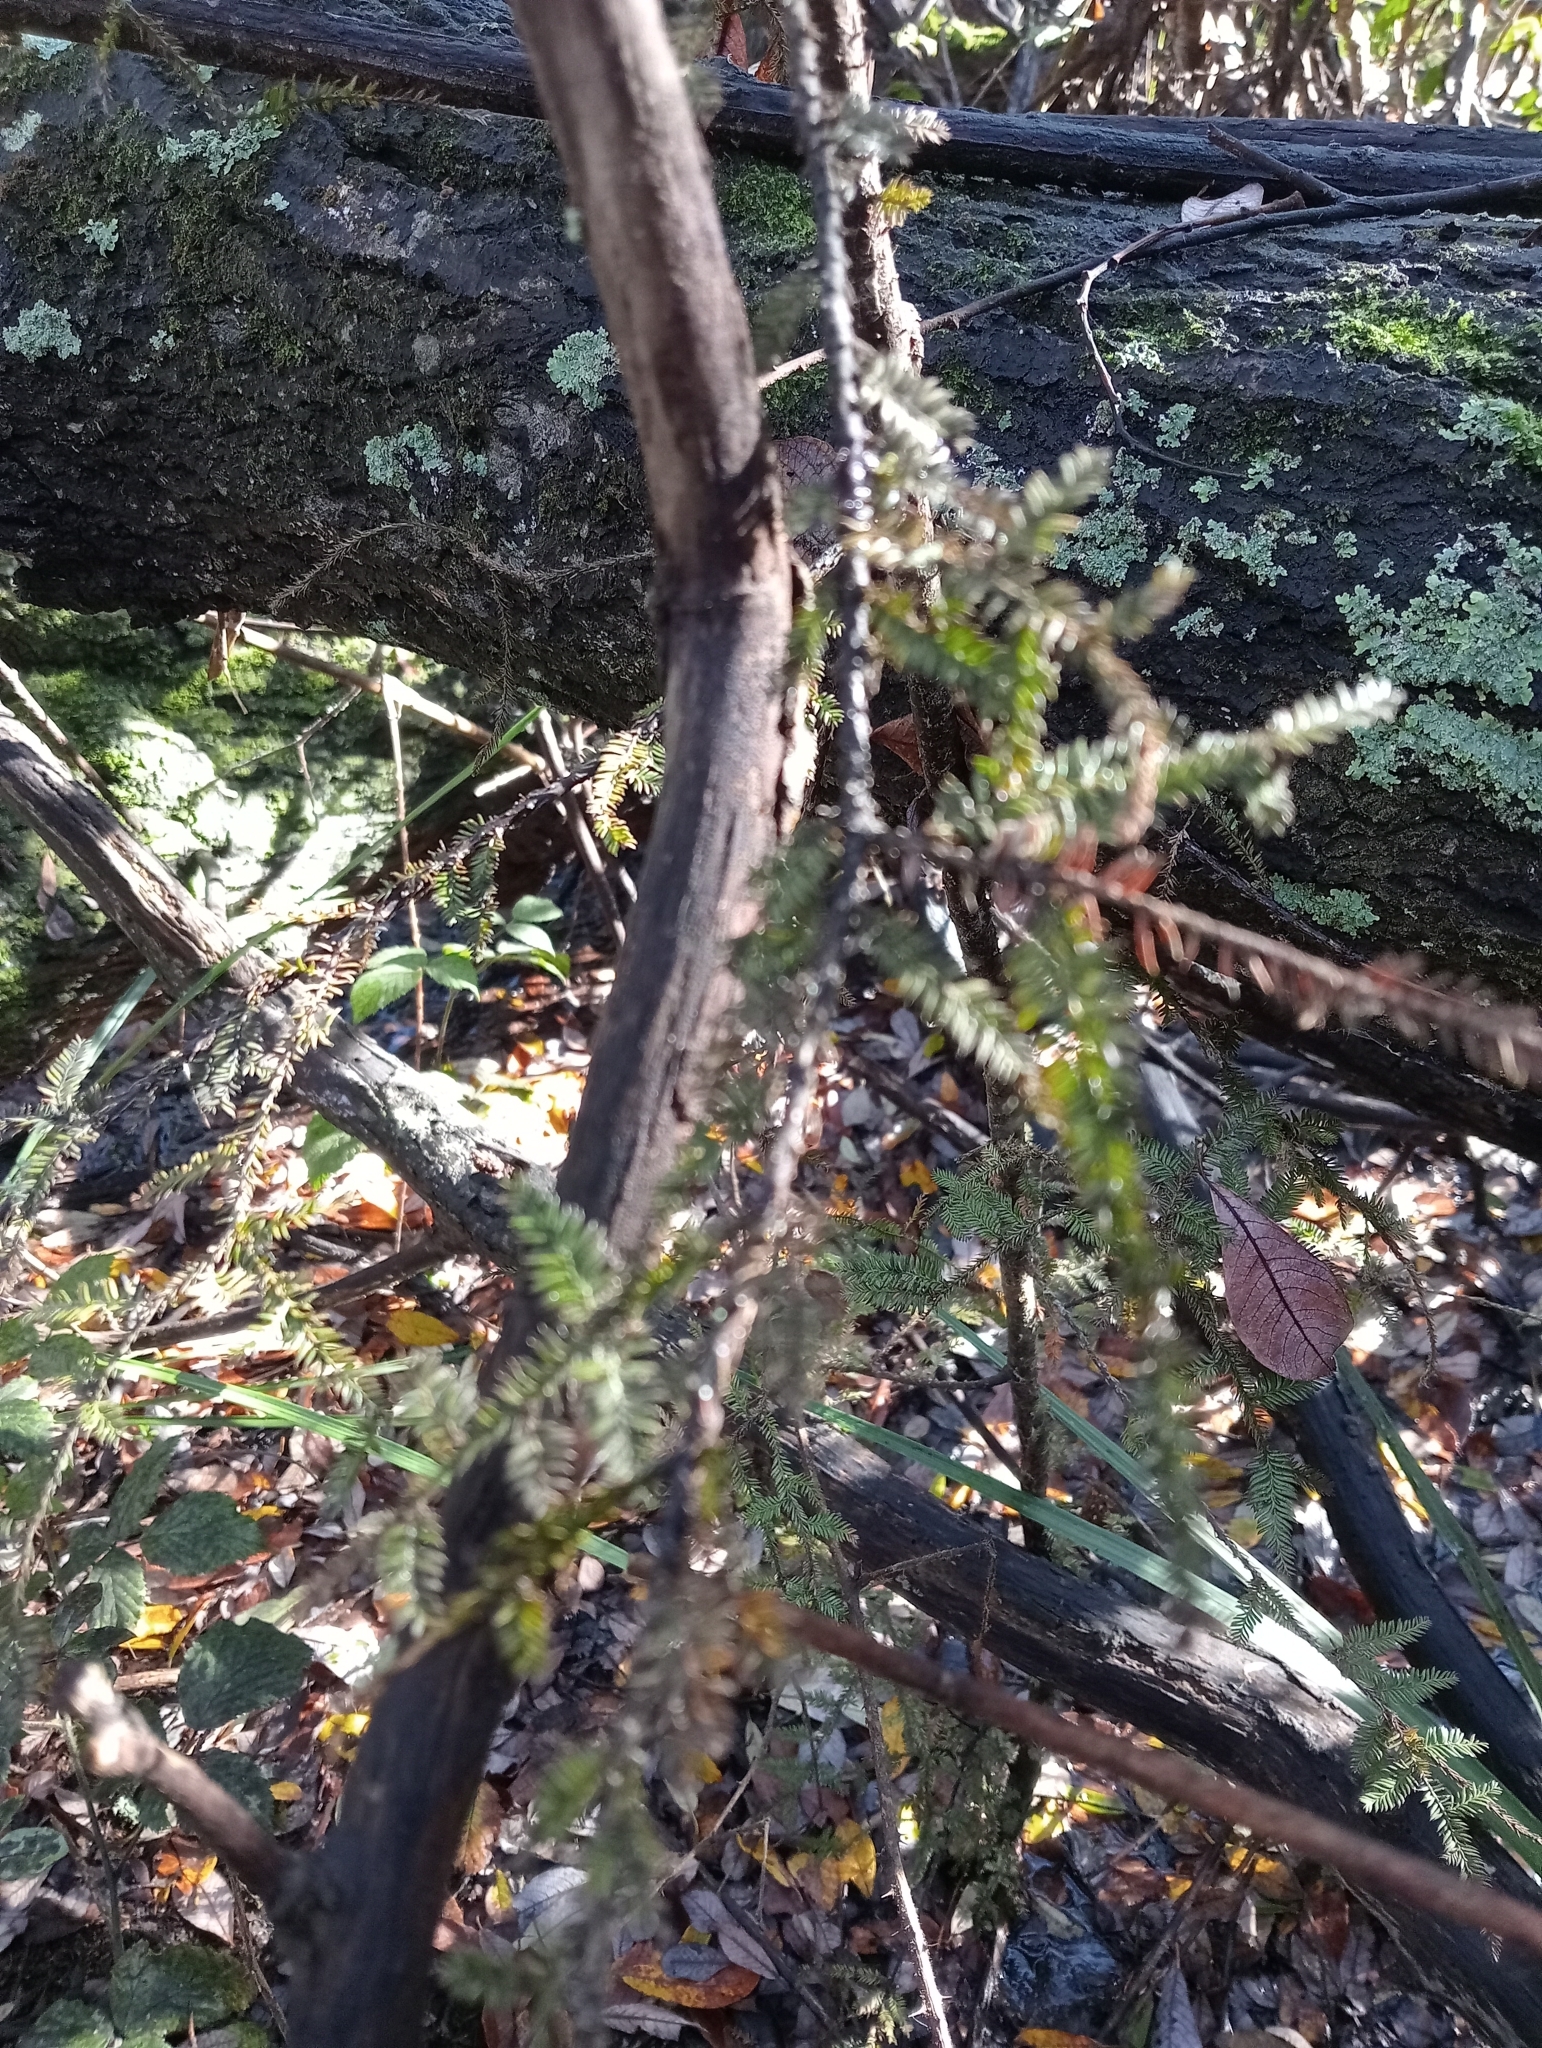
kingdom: Plantae
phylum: Tracheophyta
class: Pinopsida
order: Pinales
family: Podocarpaceae
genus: Dacrycarpus
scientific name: Dacrycarpus dacrydioides
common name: White pine
